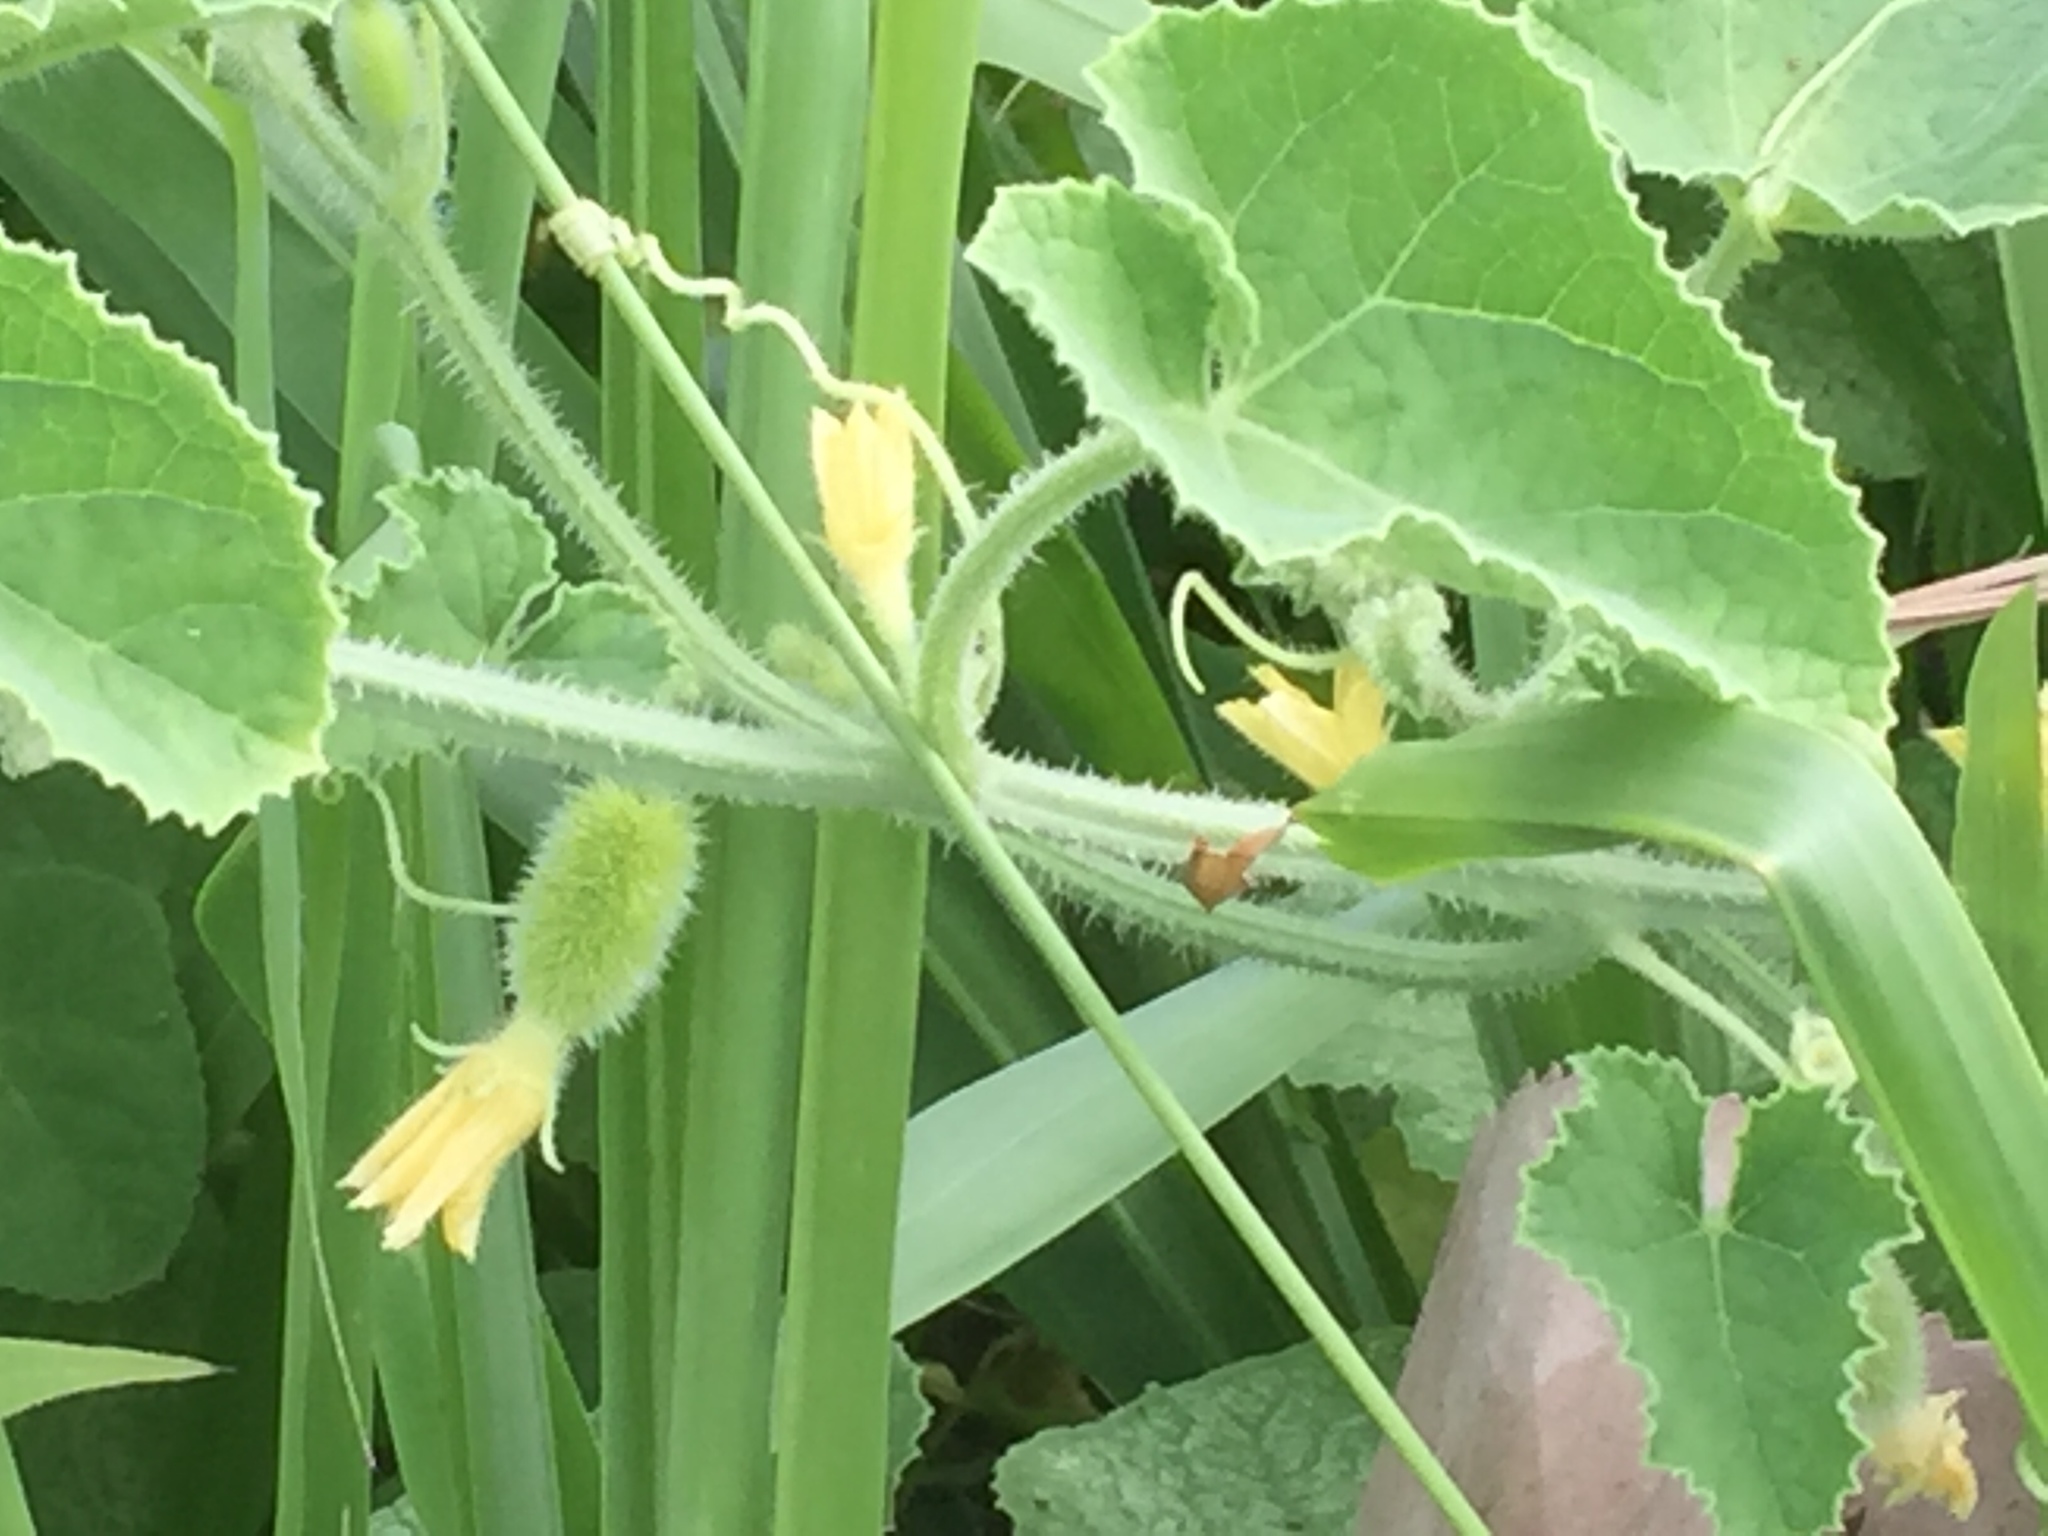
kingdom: Plantae
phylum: Tracheophyta
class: Magnoliopsida
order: Cucurbitales
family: Cucurbitaceae
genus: Ecballium
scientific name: Ecballium elaterium
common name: Squirting cucumber
